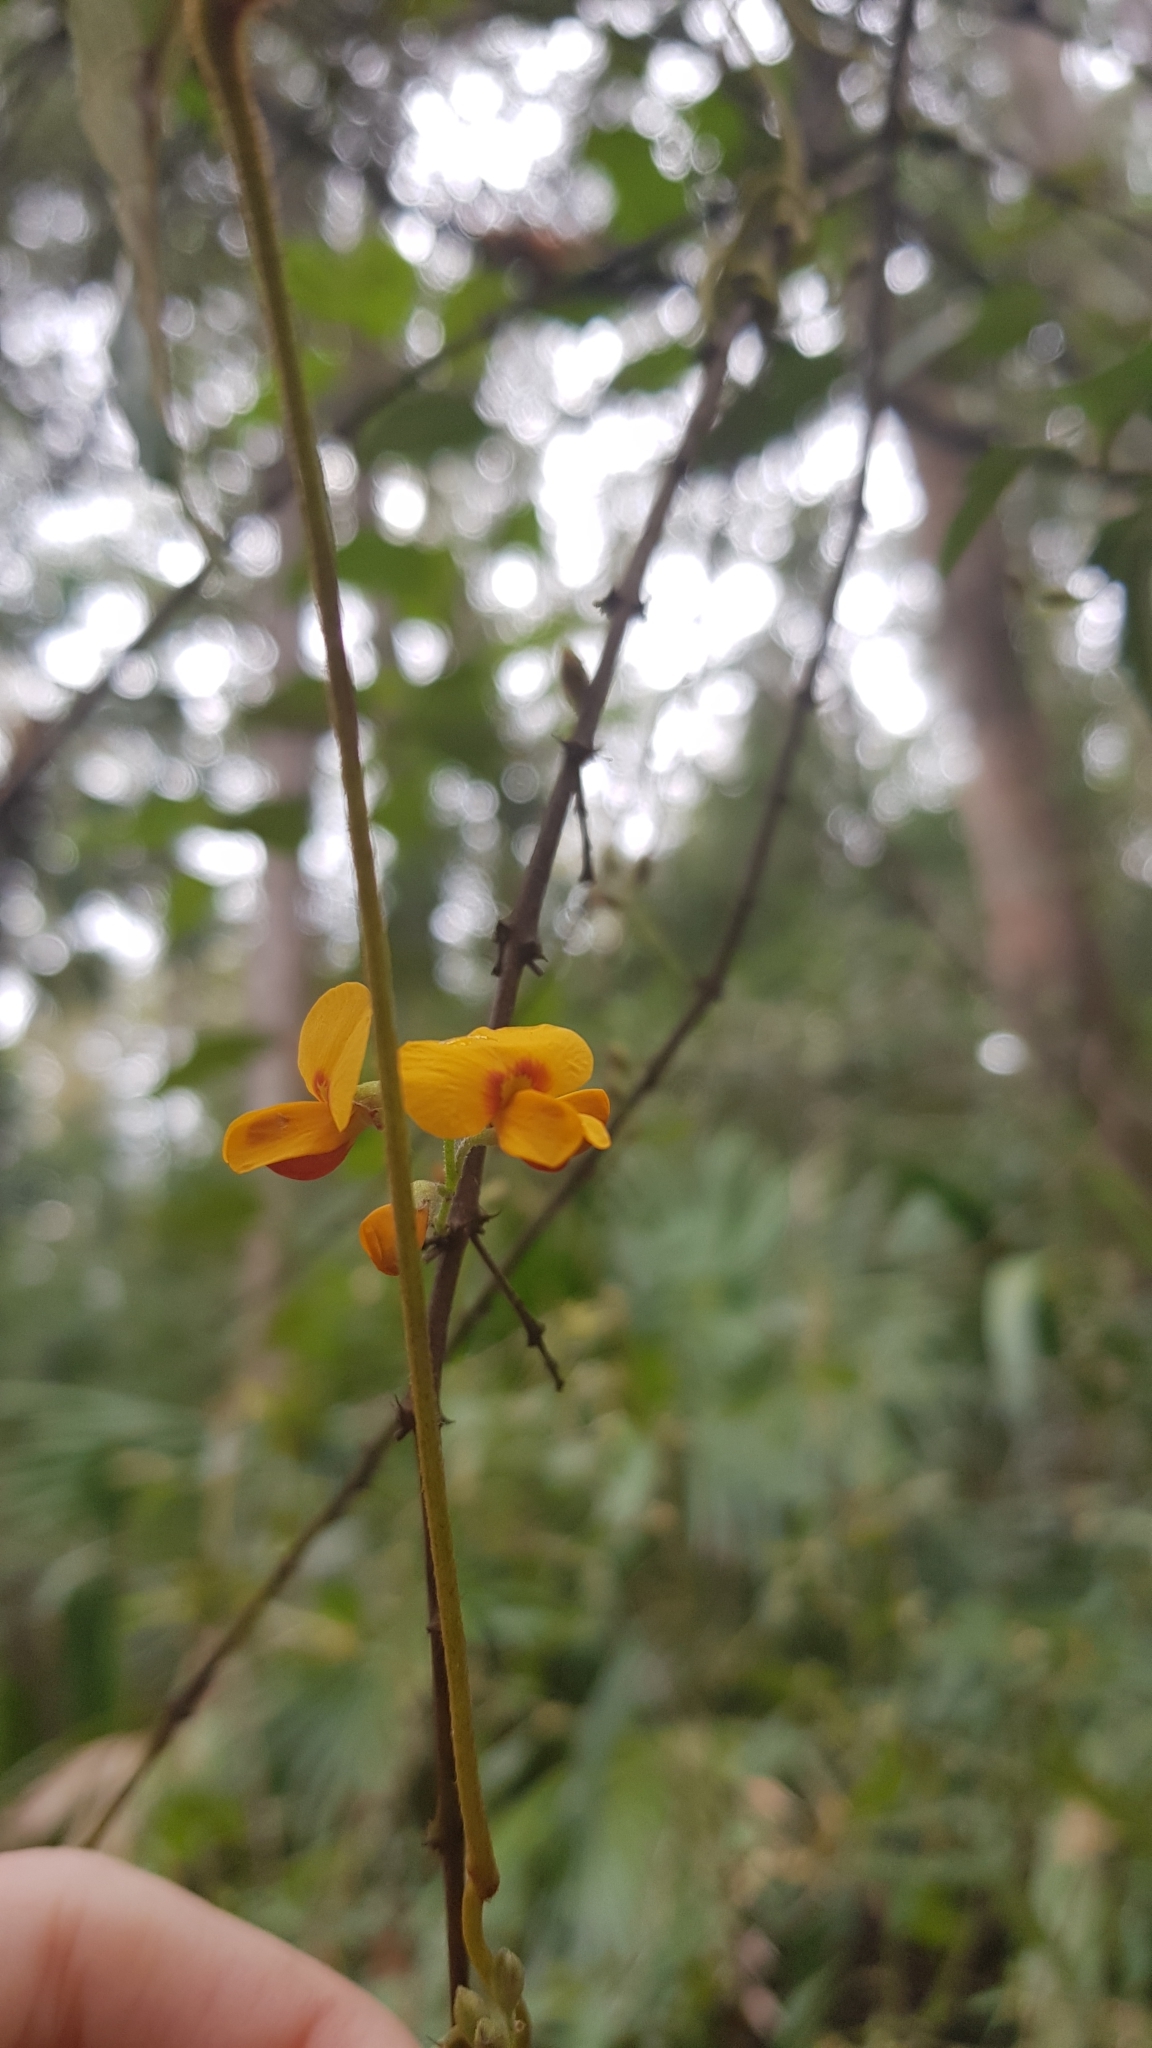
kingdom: Plantae
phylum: Tracheophyta
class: Magnoliopsida
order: Fabales
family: Fabaceae
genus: Podolobium
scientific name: Podolobium ilicifolium
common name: Native holly
